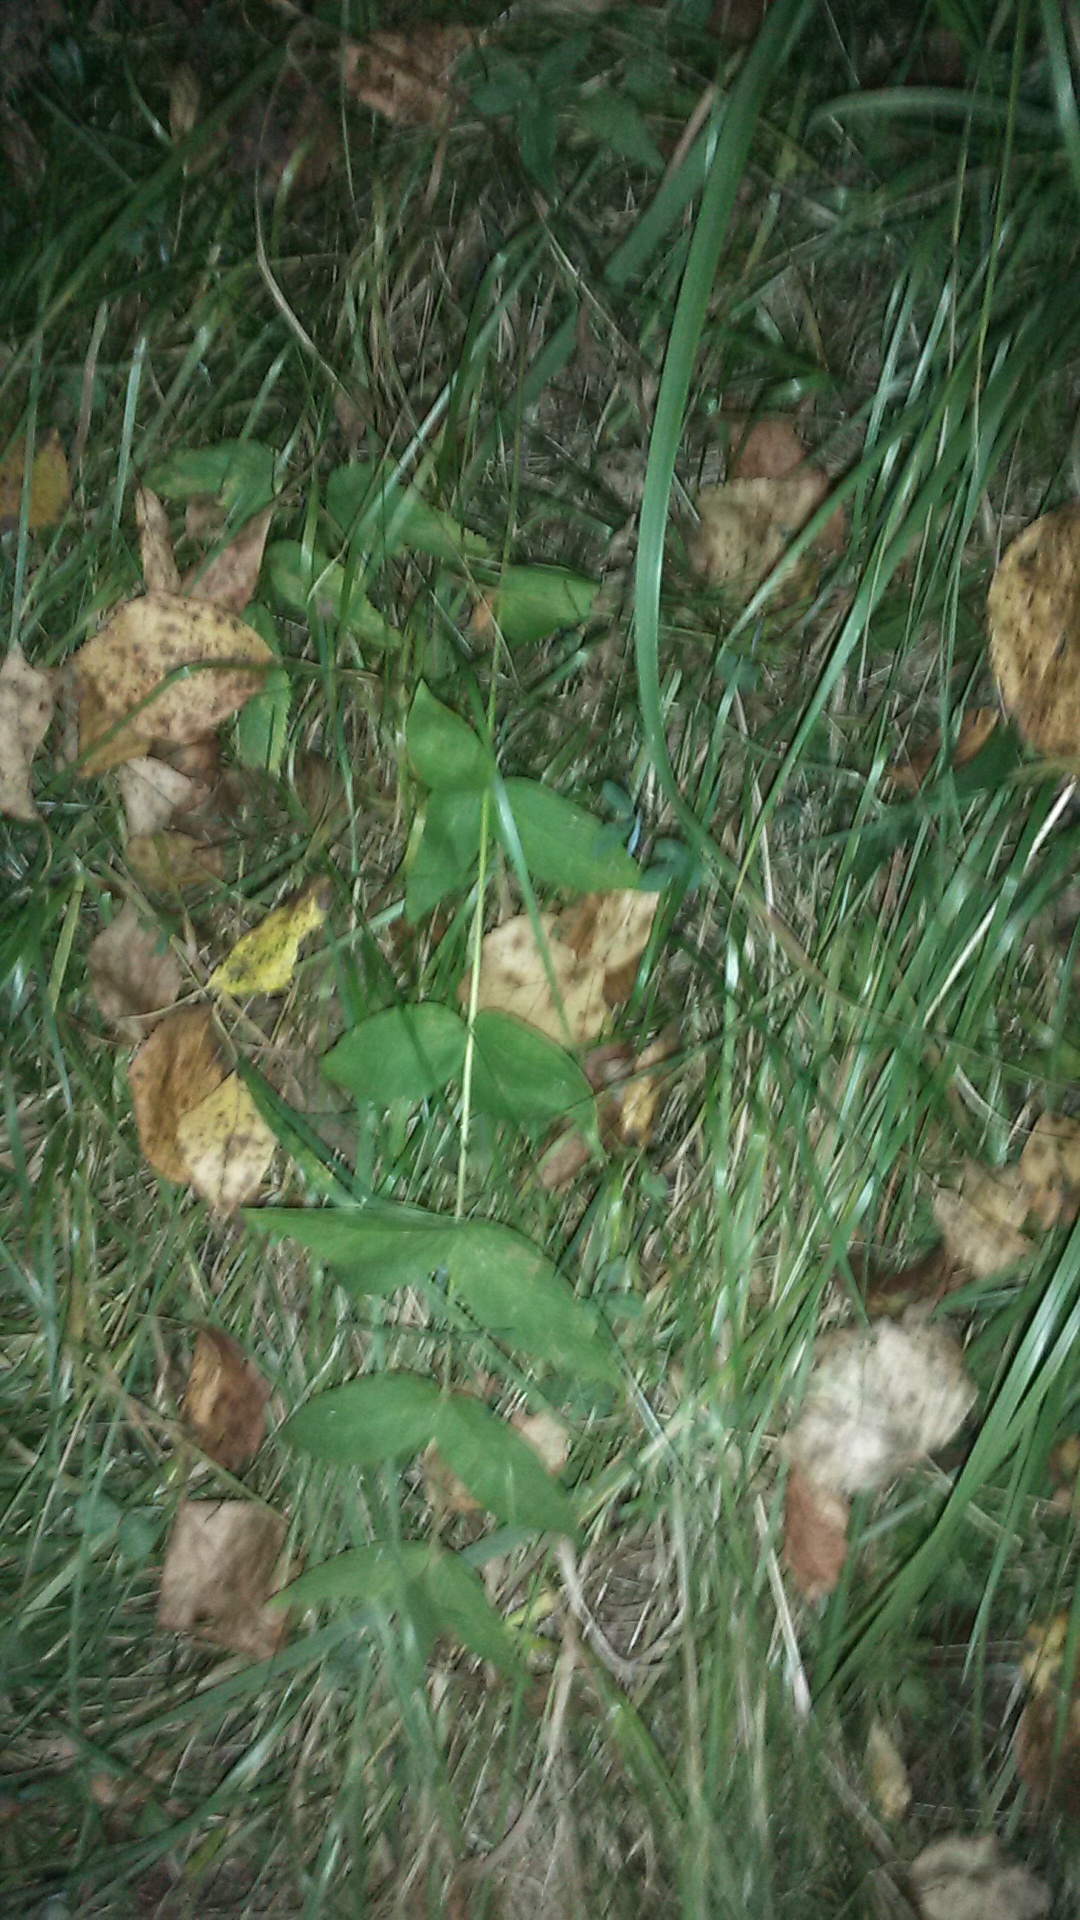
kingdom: Plantae
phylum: Tracheophyta
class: Magnoliopsida
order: Ericales
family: Primulaceae
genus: Lysimachia
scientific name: Lysimachia vulgaris
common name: Yellow loosestrife
